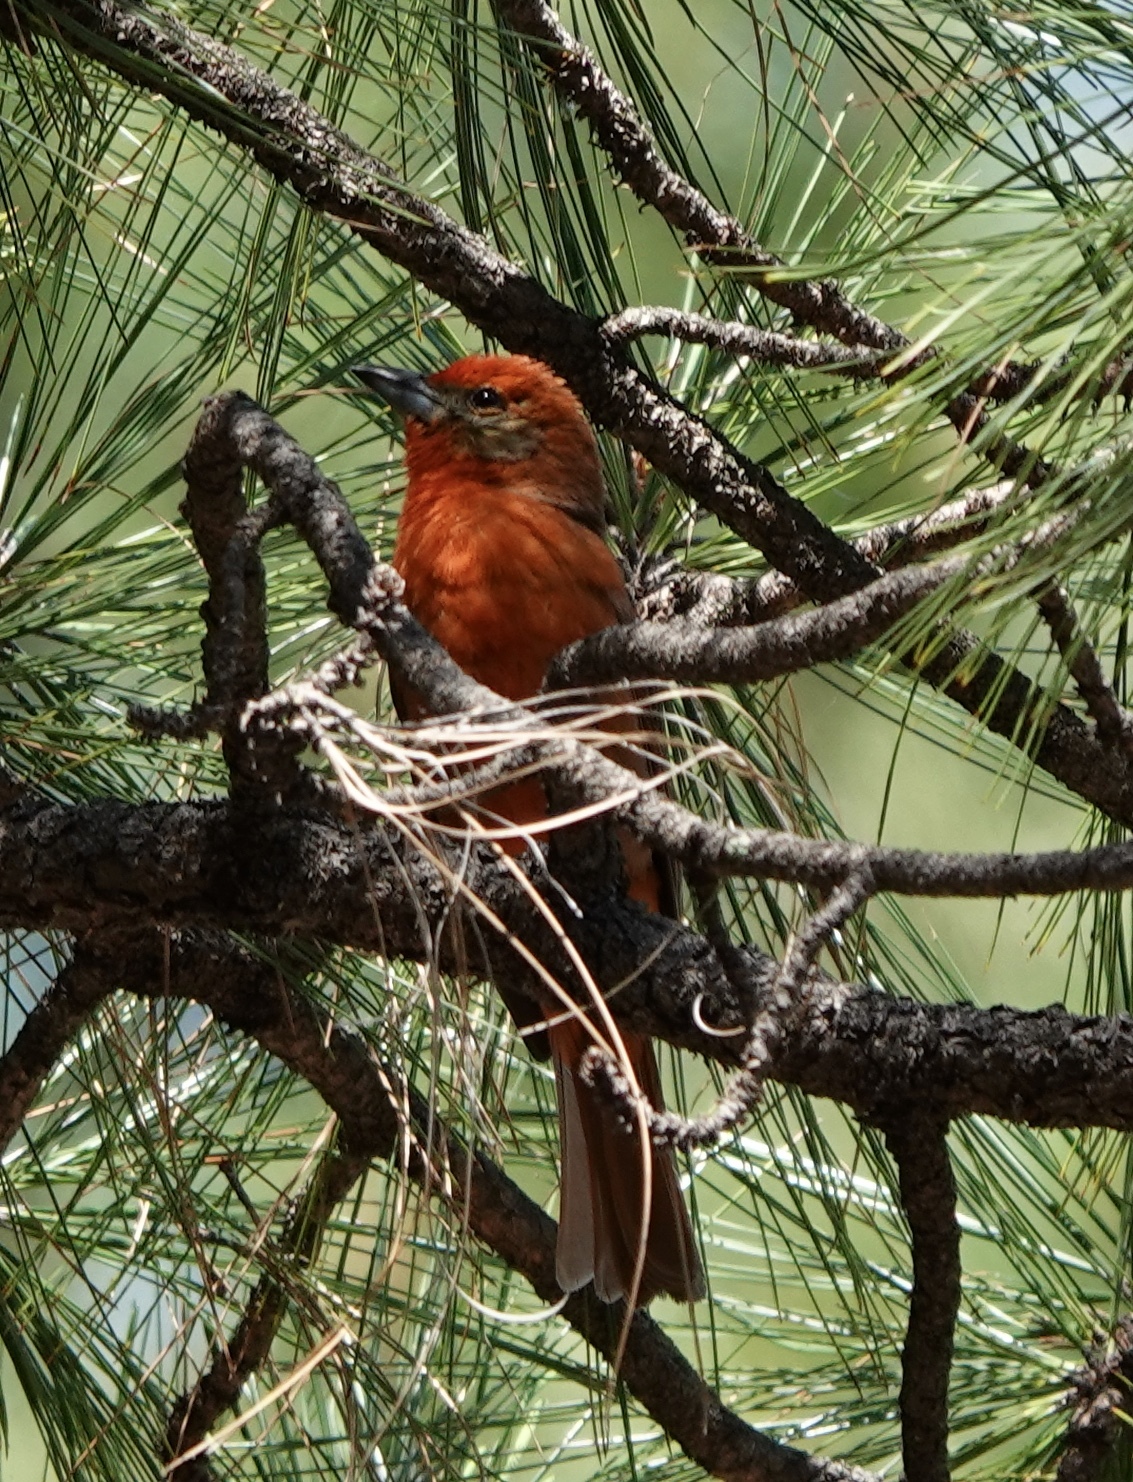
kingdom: Animalia
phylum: Chordata
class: Aves
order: Passeriformes
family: Cardinalidae
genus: Piranga
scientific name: Piranga flava
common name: Red tanager
